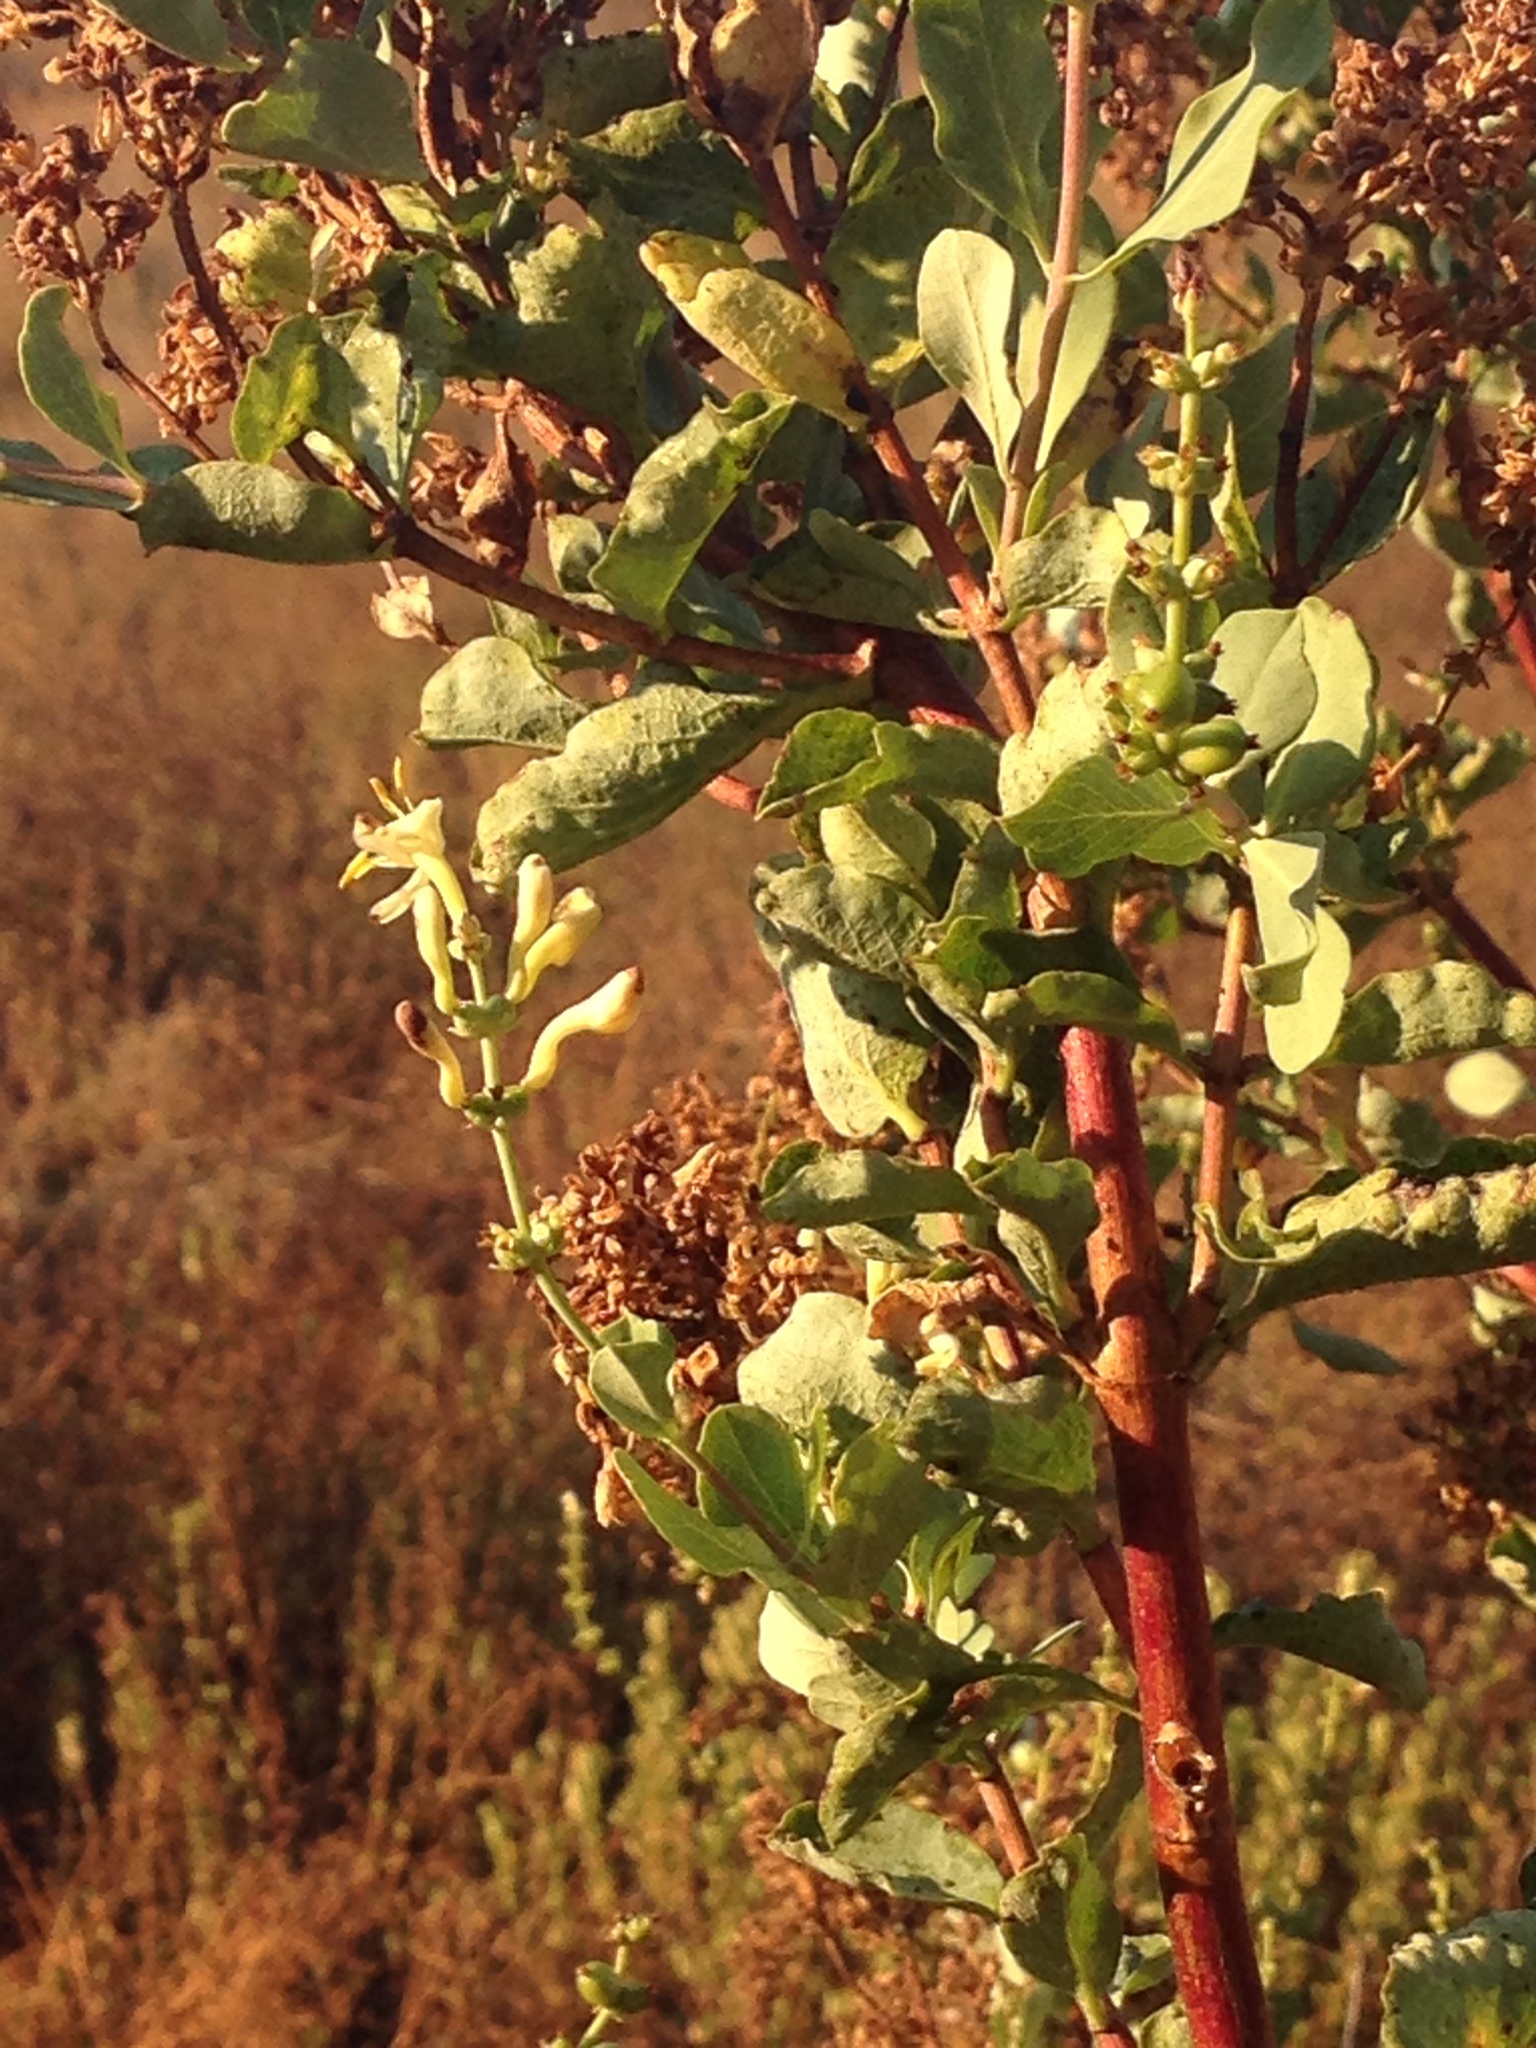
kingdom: Plantae
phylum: Tracheophyta
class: Magnoliopsida
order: Dipsacales
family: Caprifoliaceae
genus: Lonicera
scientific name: Lonicera subspicata
